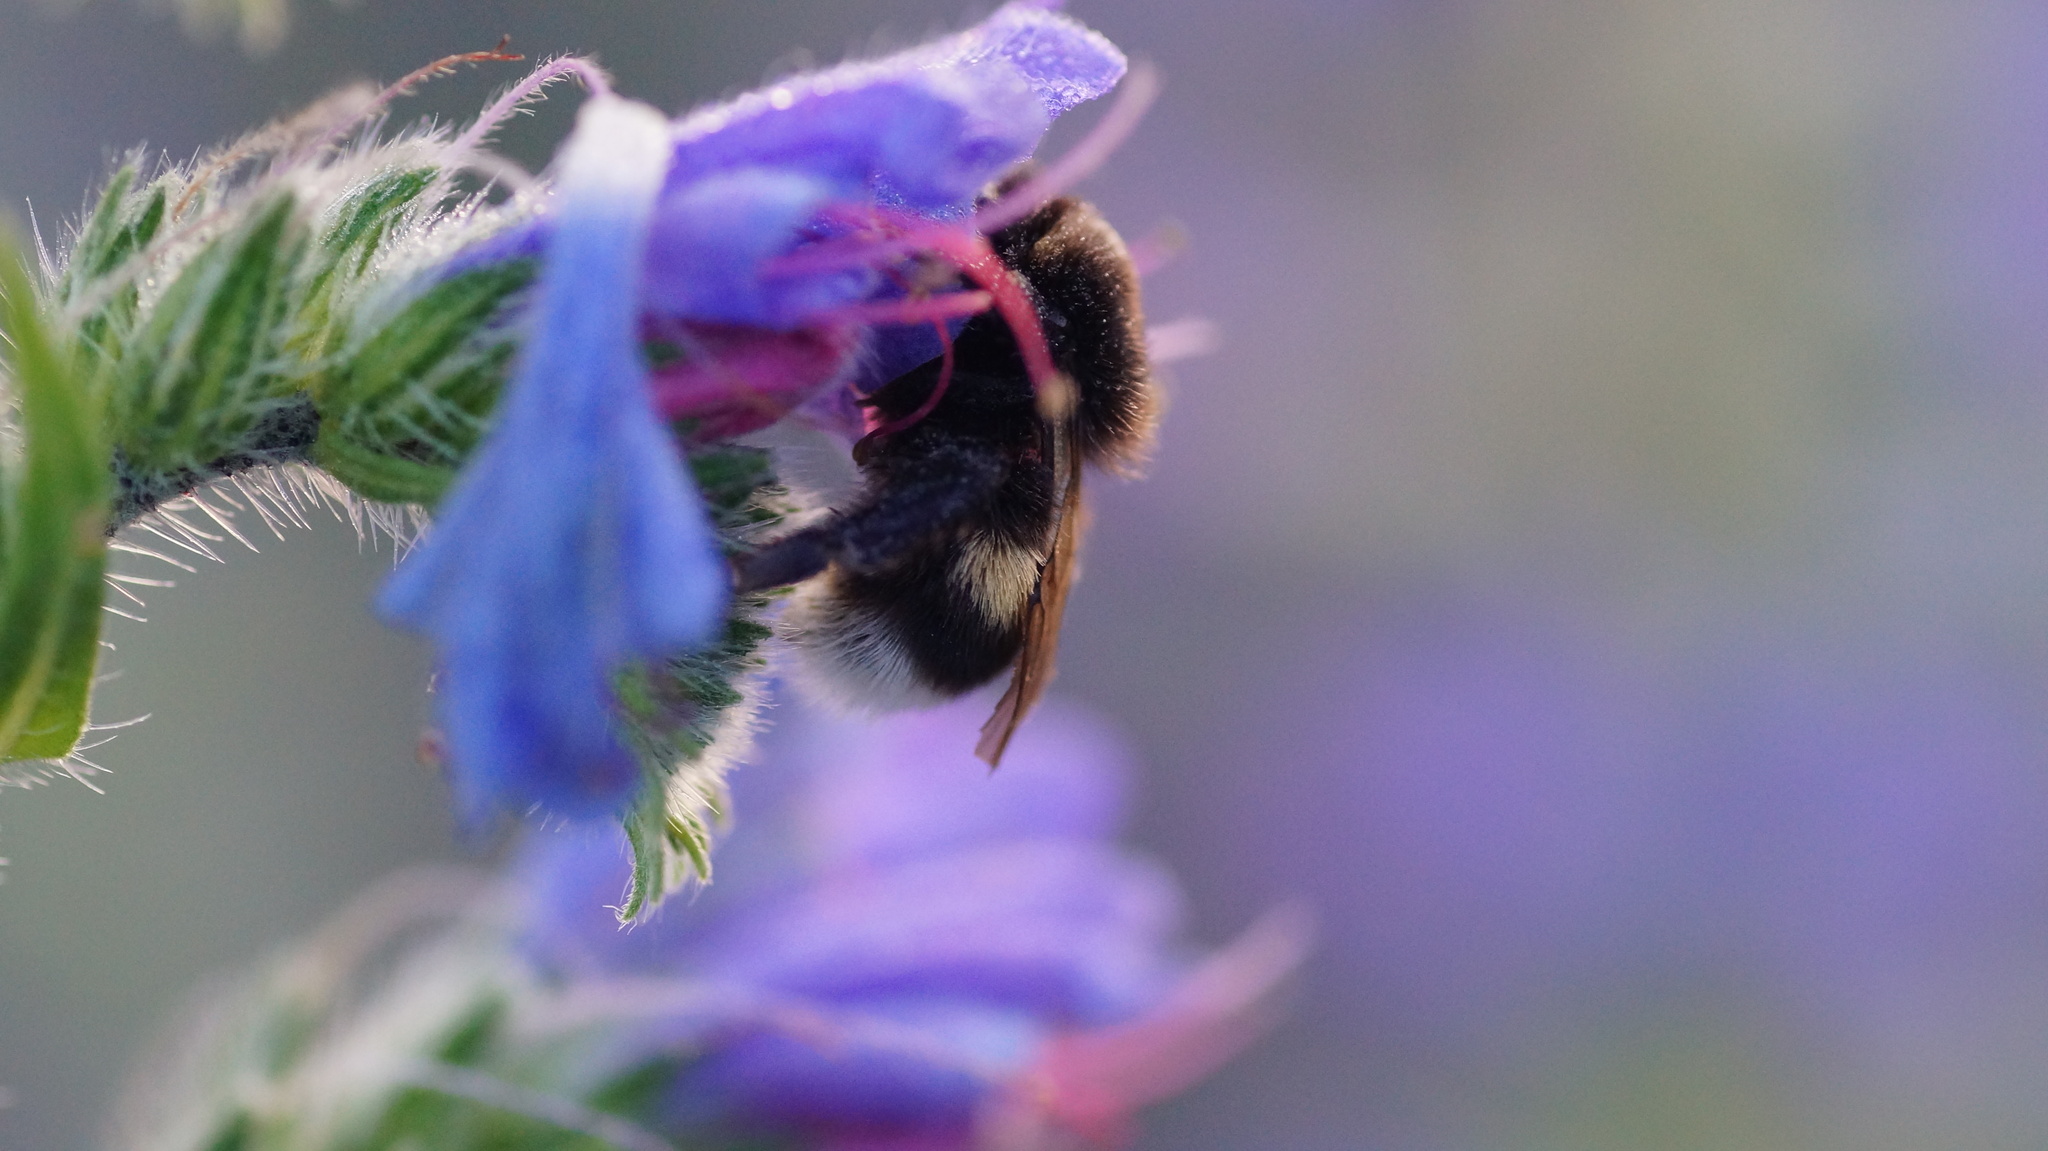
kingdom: Animalia
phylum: Arthropoda
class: Insecta
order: Hymenoptera
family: Apidae
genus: Bombus
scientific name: Bombus
